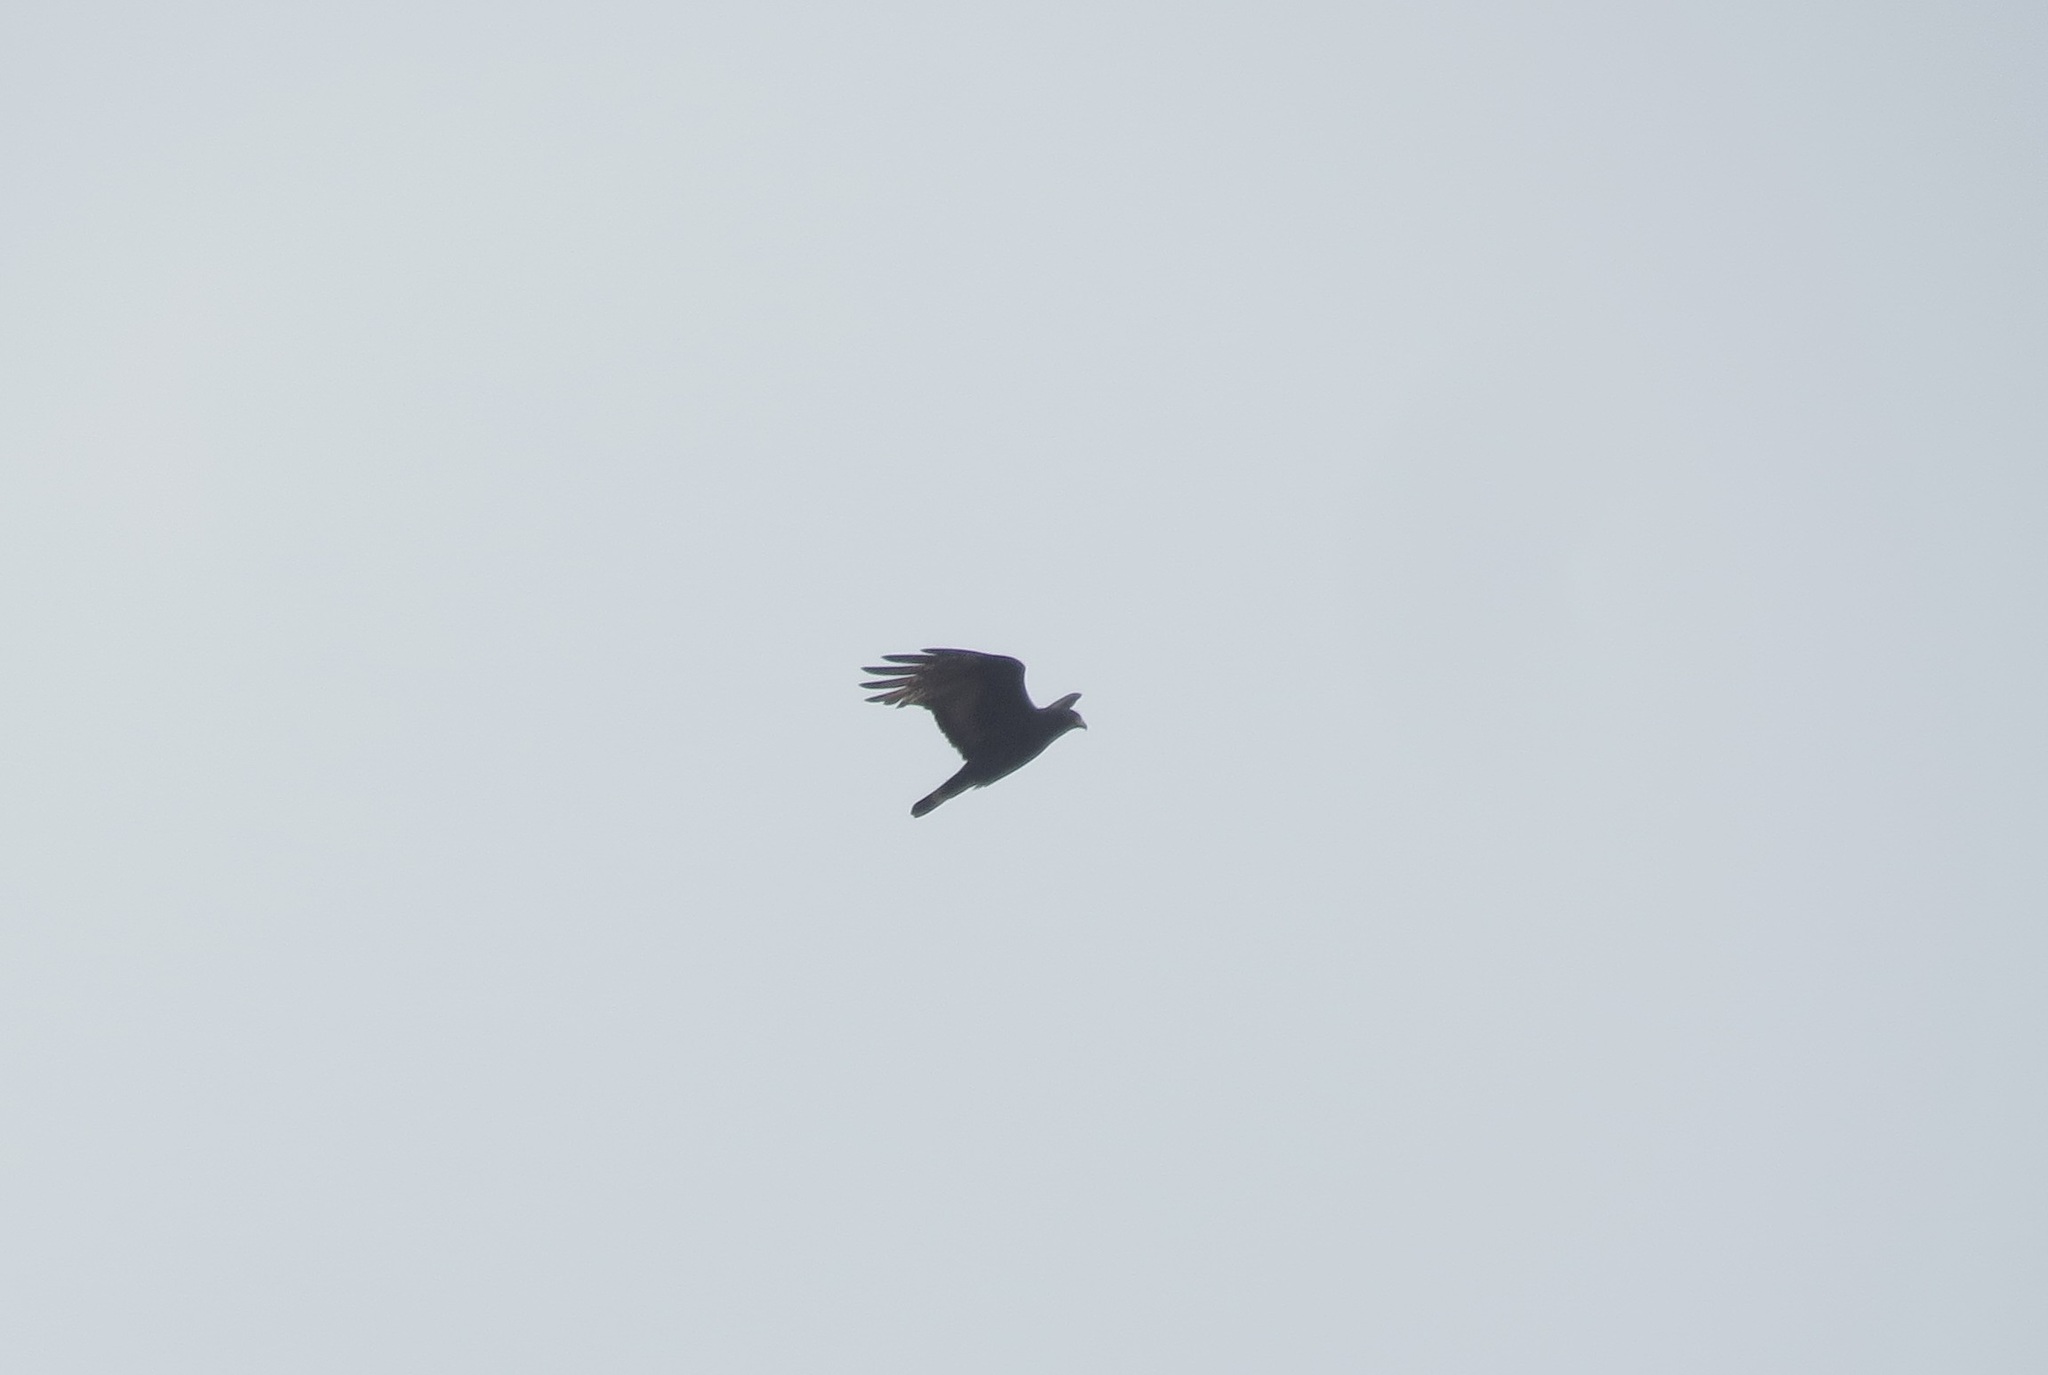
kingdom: Animalia
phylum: Chordata
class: Aves
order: Accipitriformes
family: Accipitridae
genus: Buteo
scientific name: Buteo albonotatus
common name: Zone-tailed hawk
